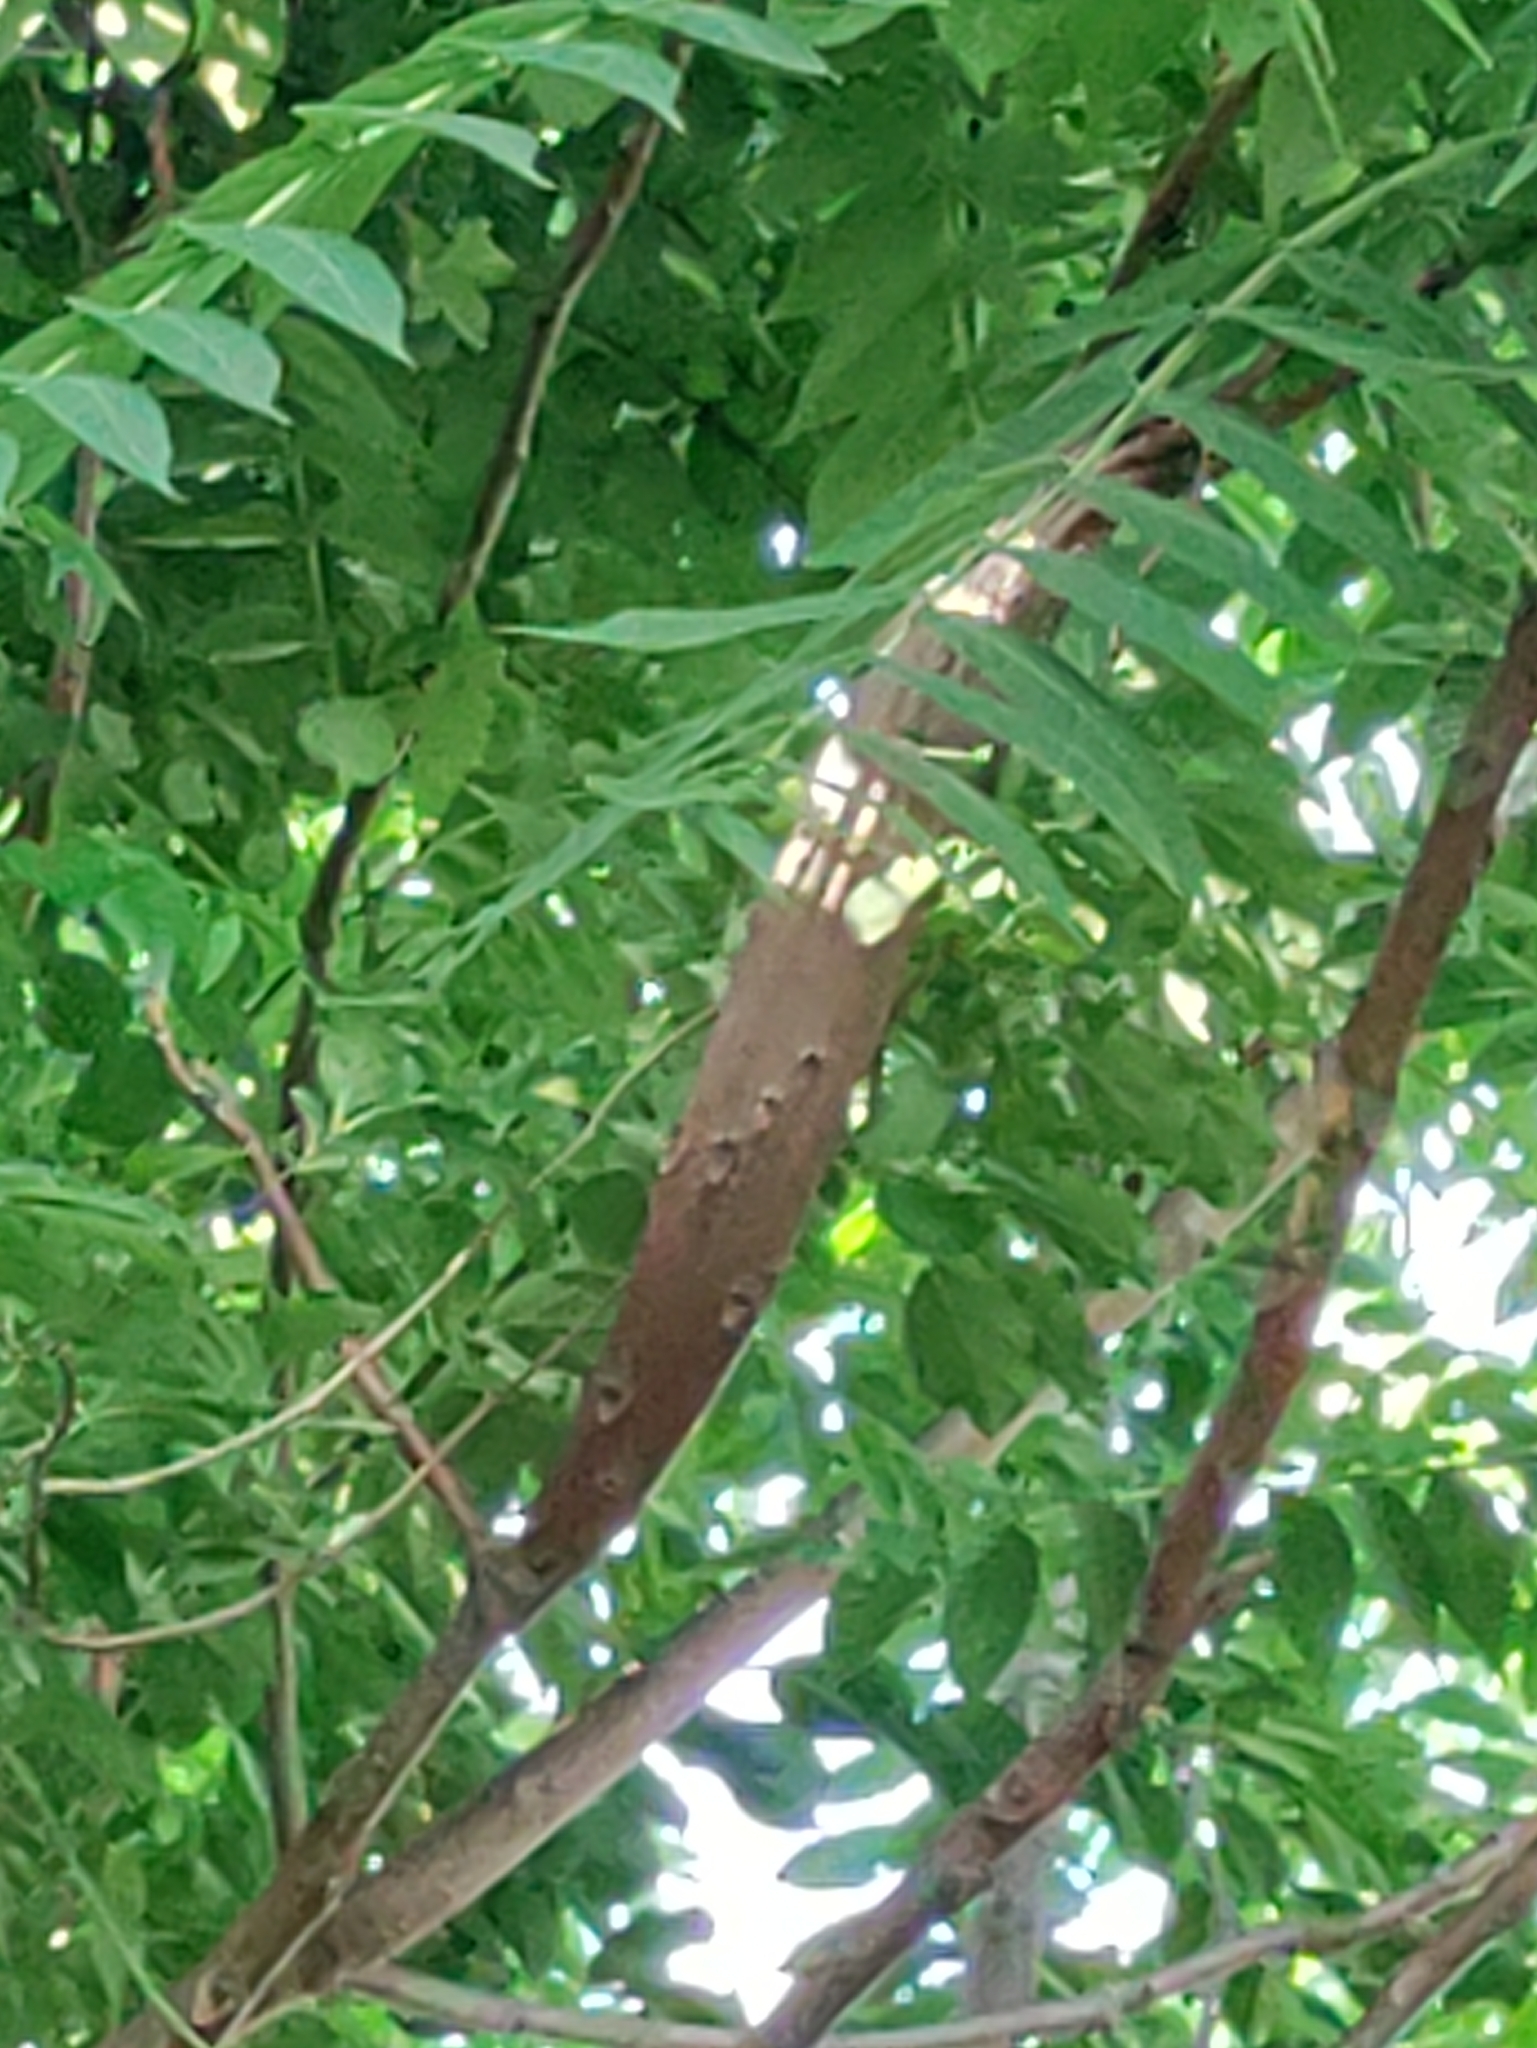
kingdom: Plantae
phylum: Tracheophyta
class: Magnoliopsida
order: Sapindales
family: Simaroubaceae
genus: Ailanthus
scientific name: Ailanthus altissima
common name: Tree-of-heaven
